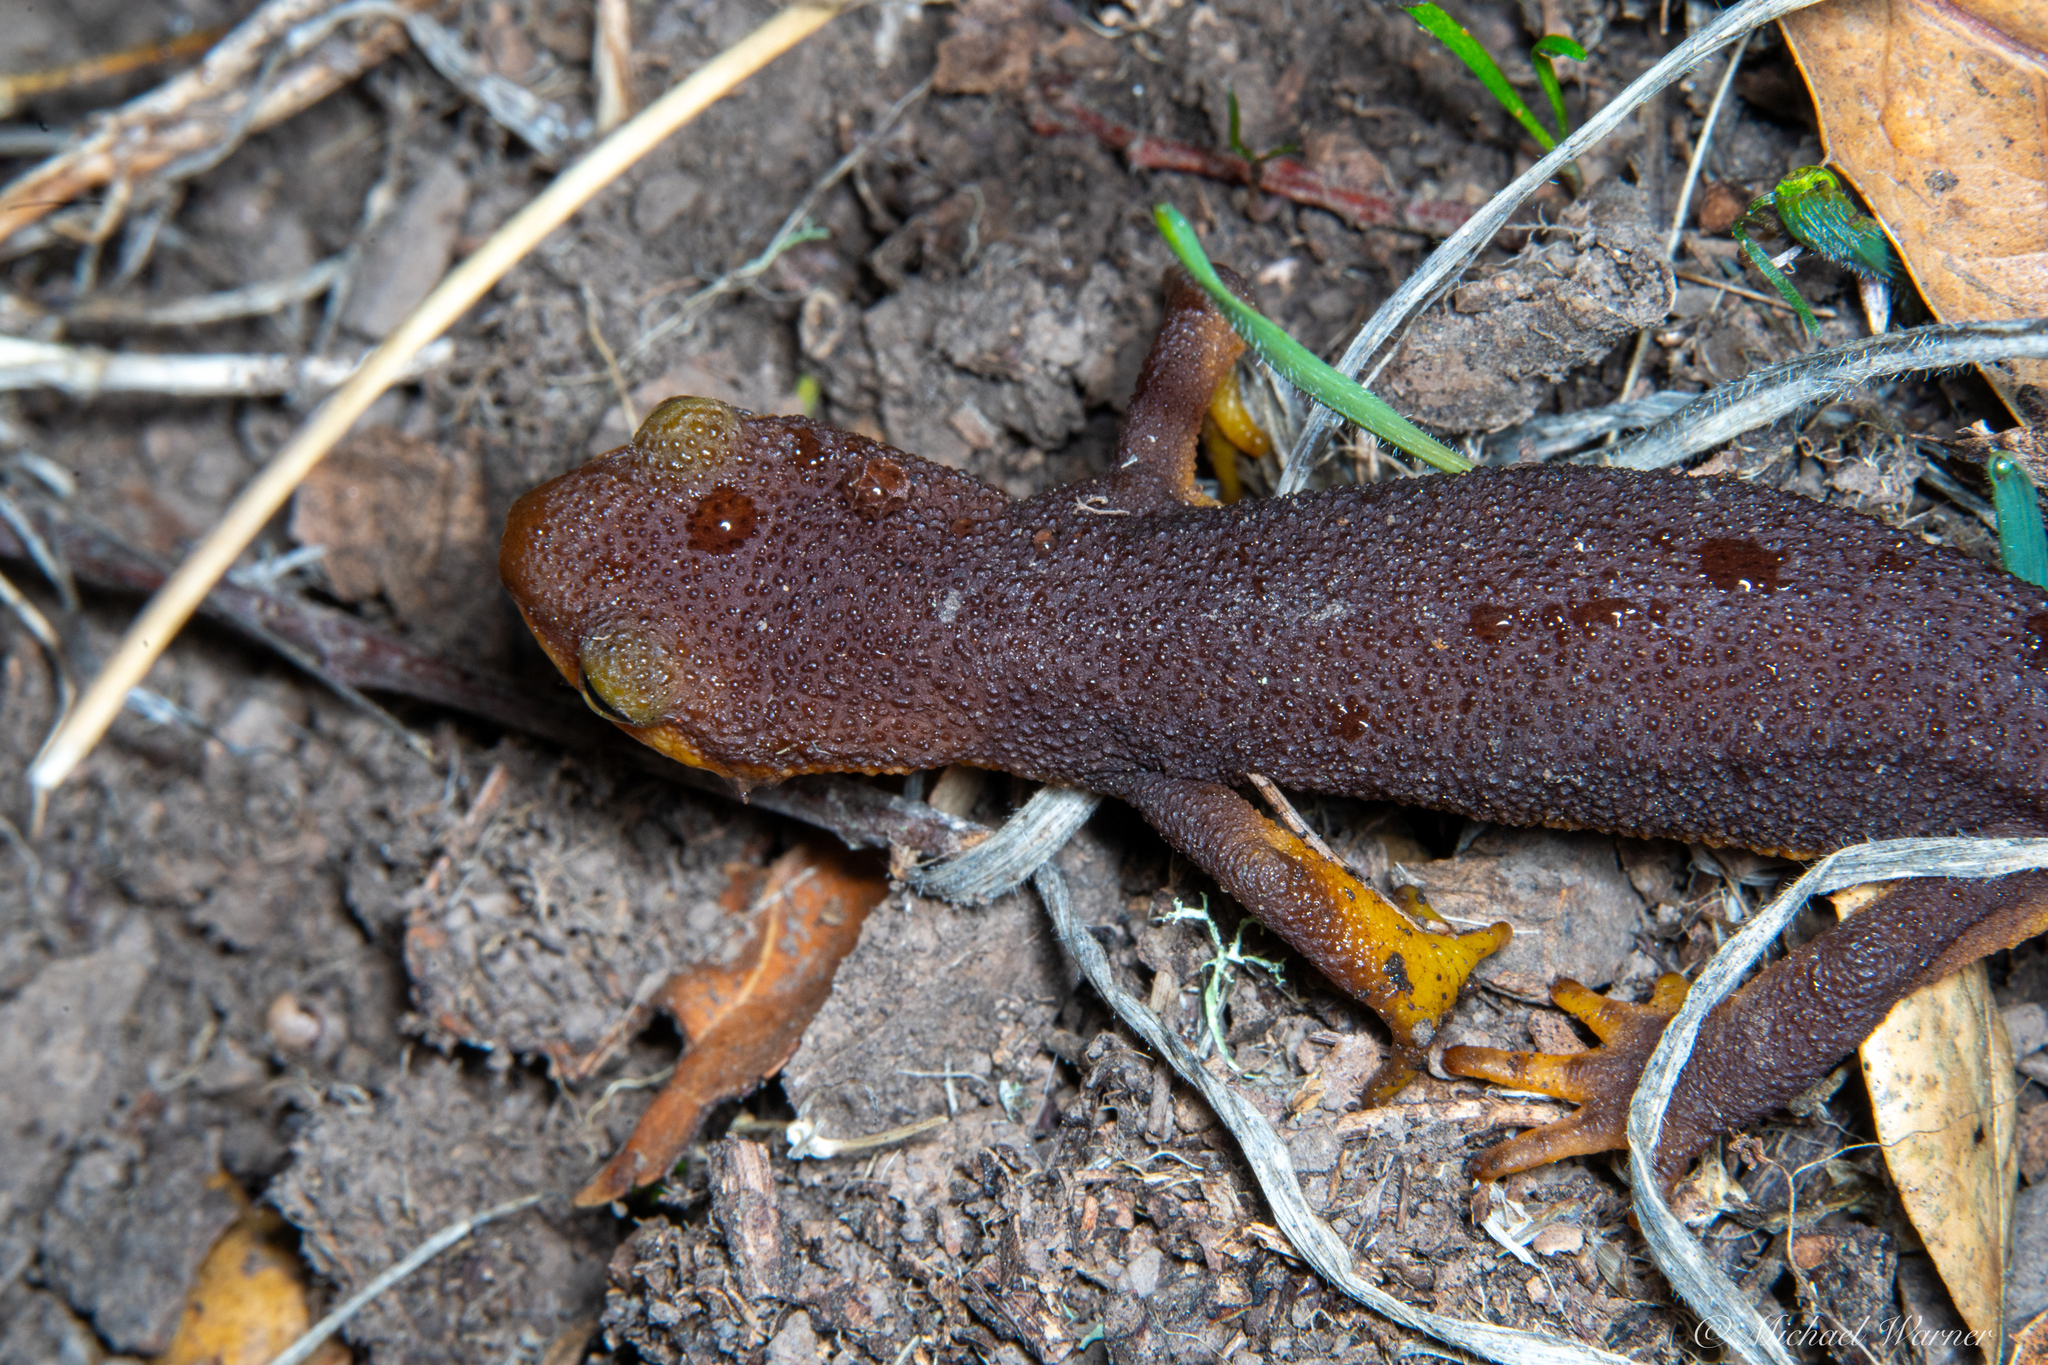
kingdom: Animalia
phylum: Chordata
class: Amphibia
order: Caudata
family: Salamandridae
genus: Taricha
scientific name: Taricha torosa
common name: California newt
